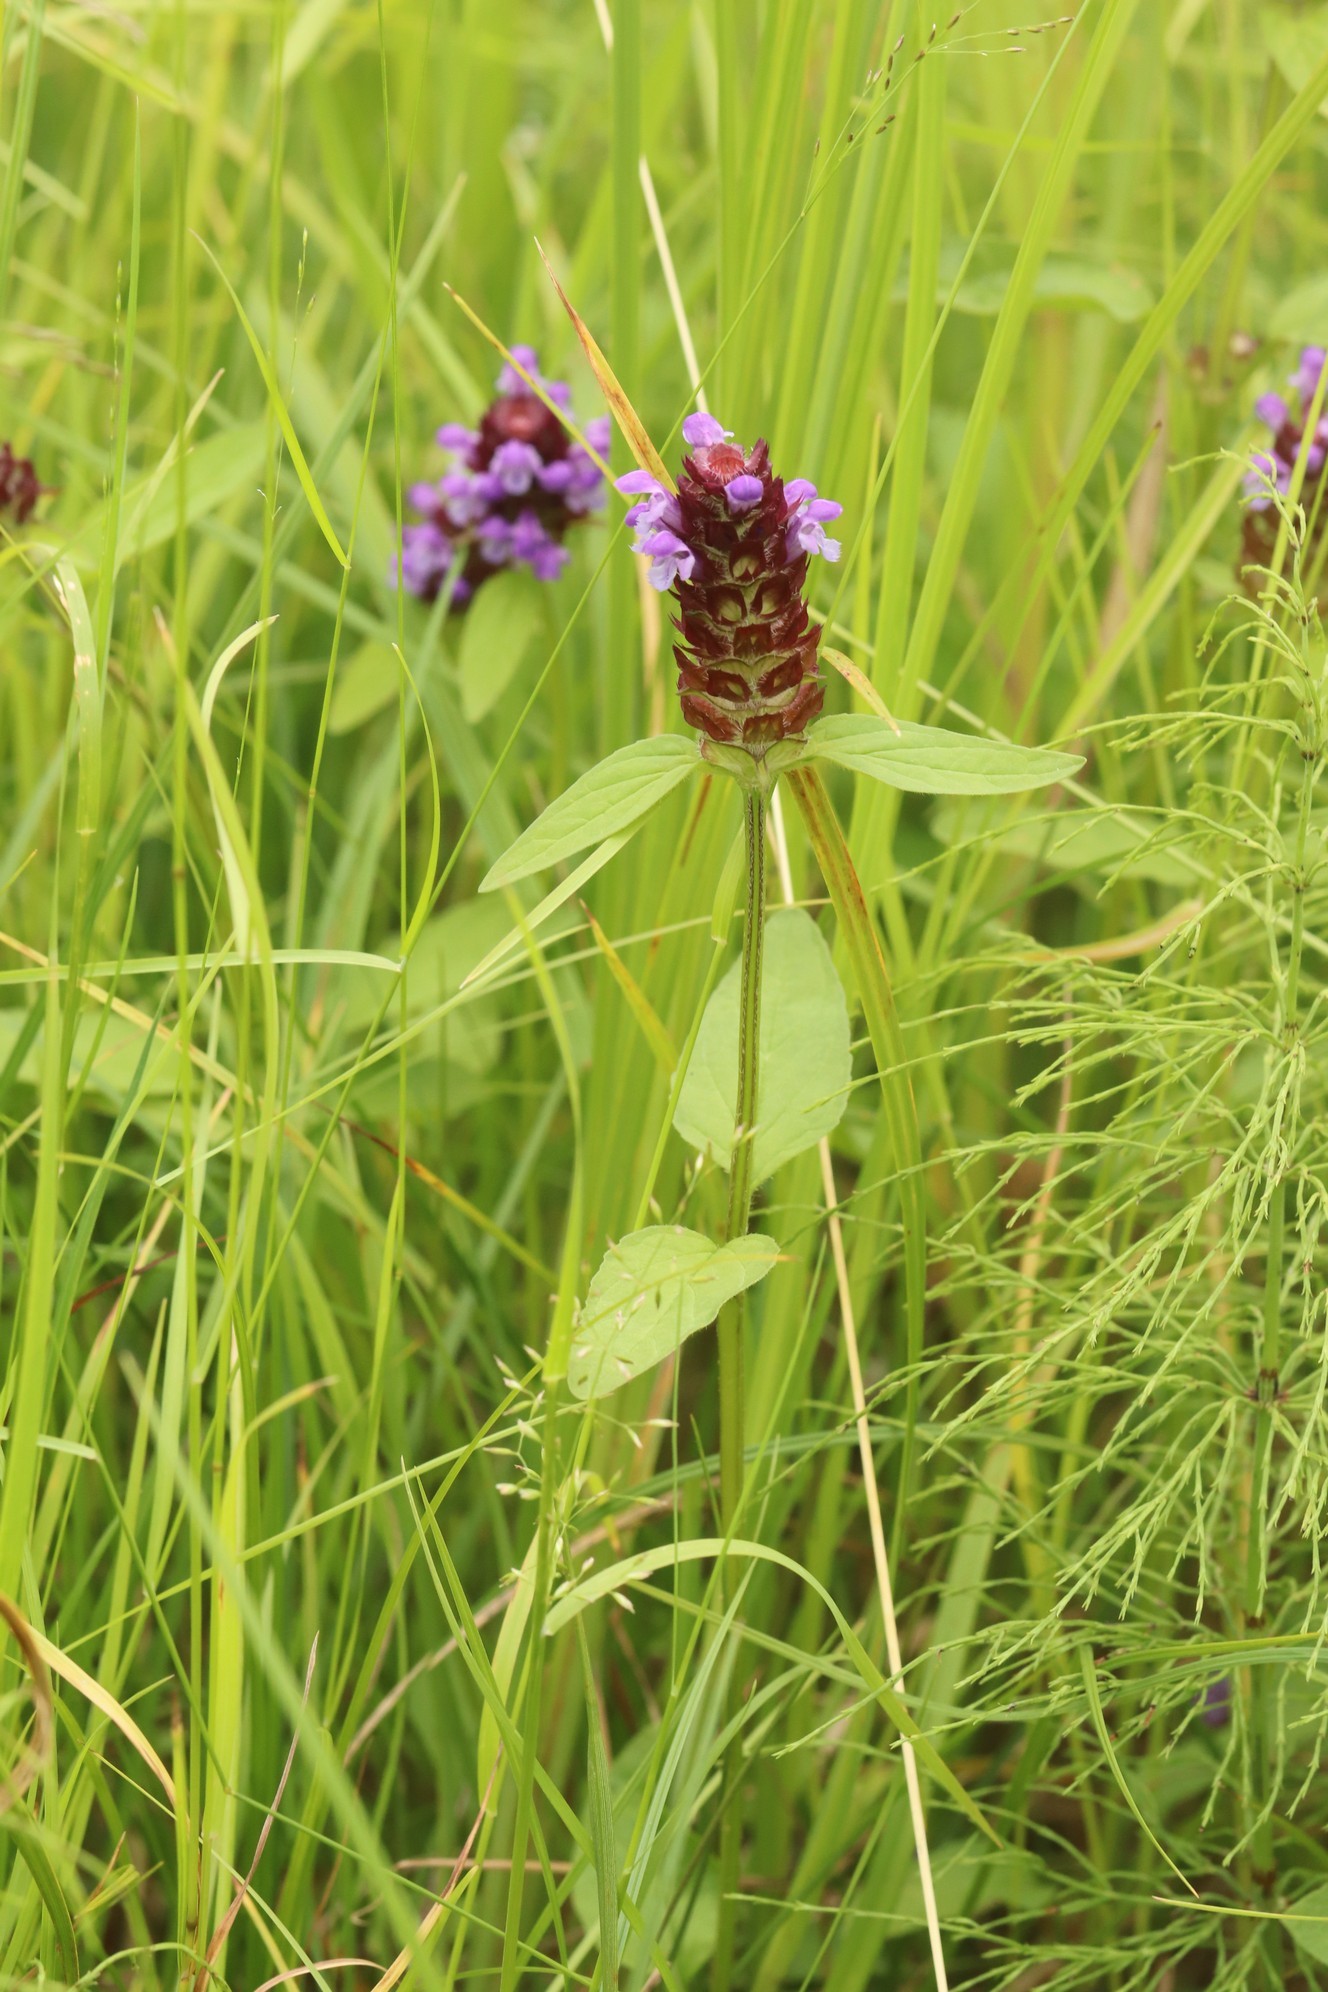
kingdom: Plantae
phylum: Tracheophyta
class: Magnoliopsida
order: Lamiales
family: Lamiaceae
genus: Prunella
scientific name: Prunella vulgaris
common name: Heal-all
